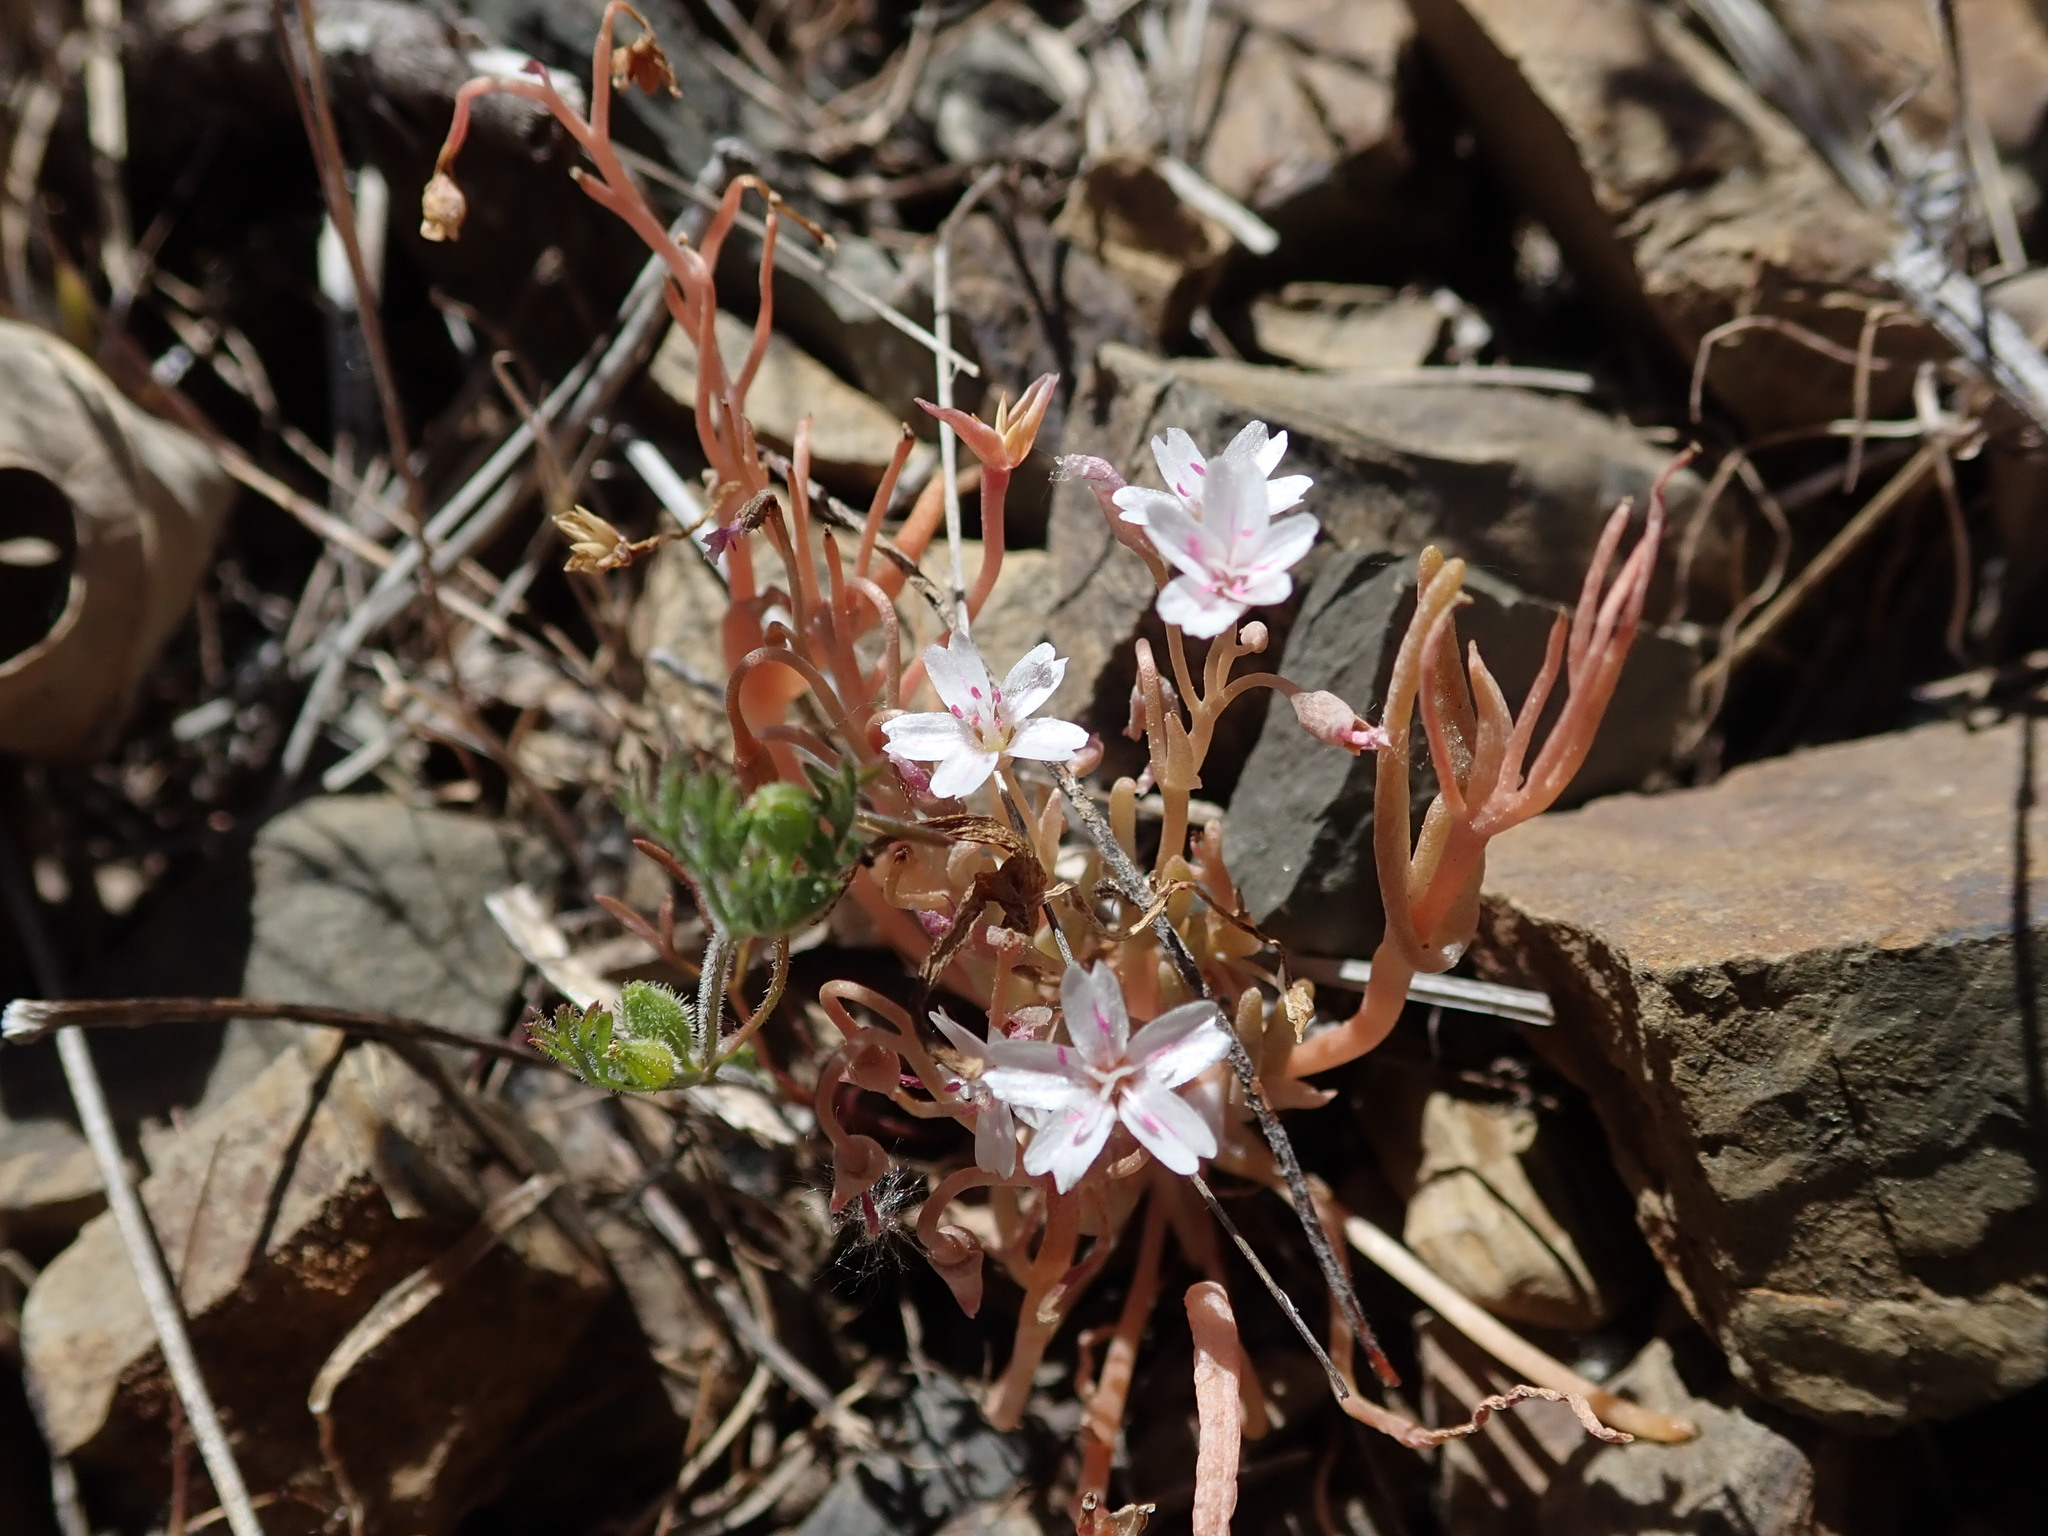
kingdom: Plantae
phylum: Tracheophyta
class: Magnoliopsida
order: Caryophyllales
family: Montiaceae
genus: Claytonia
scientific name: Claytonia gypsophiloides
